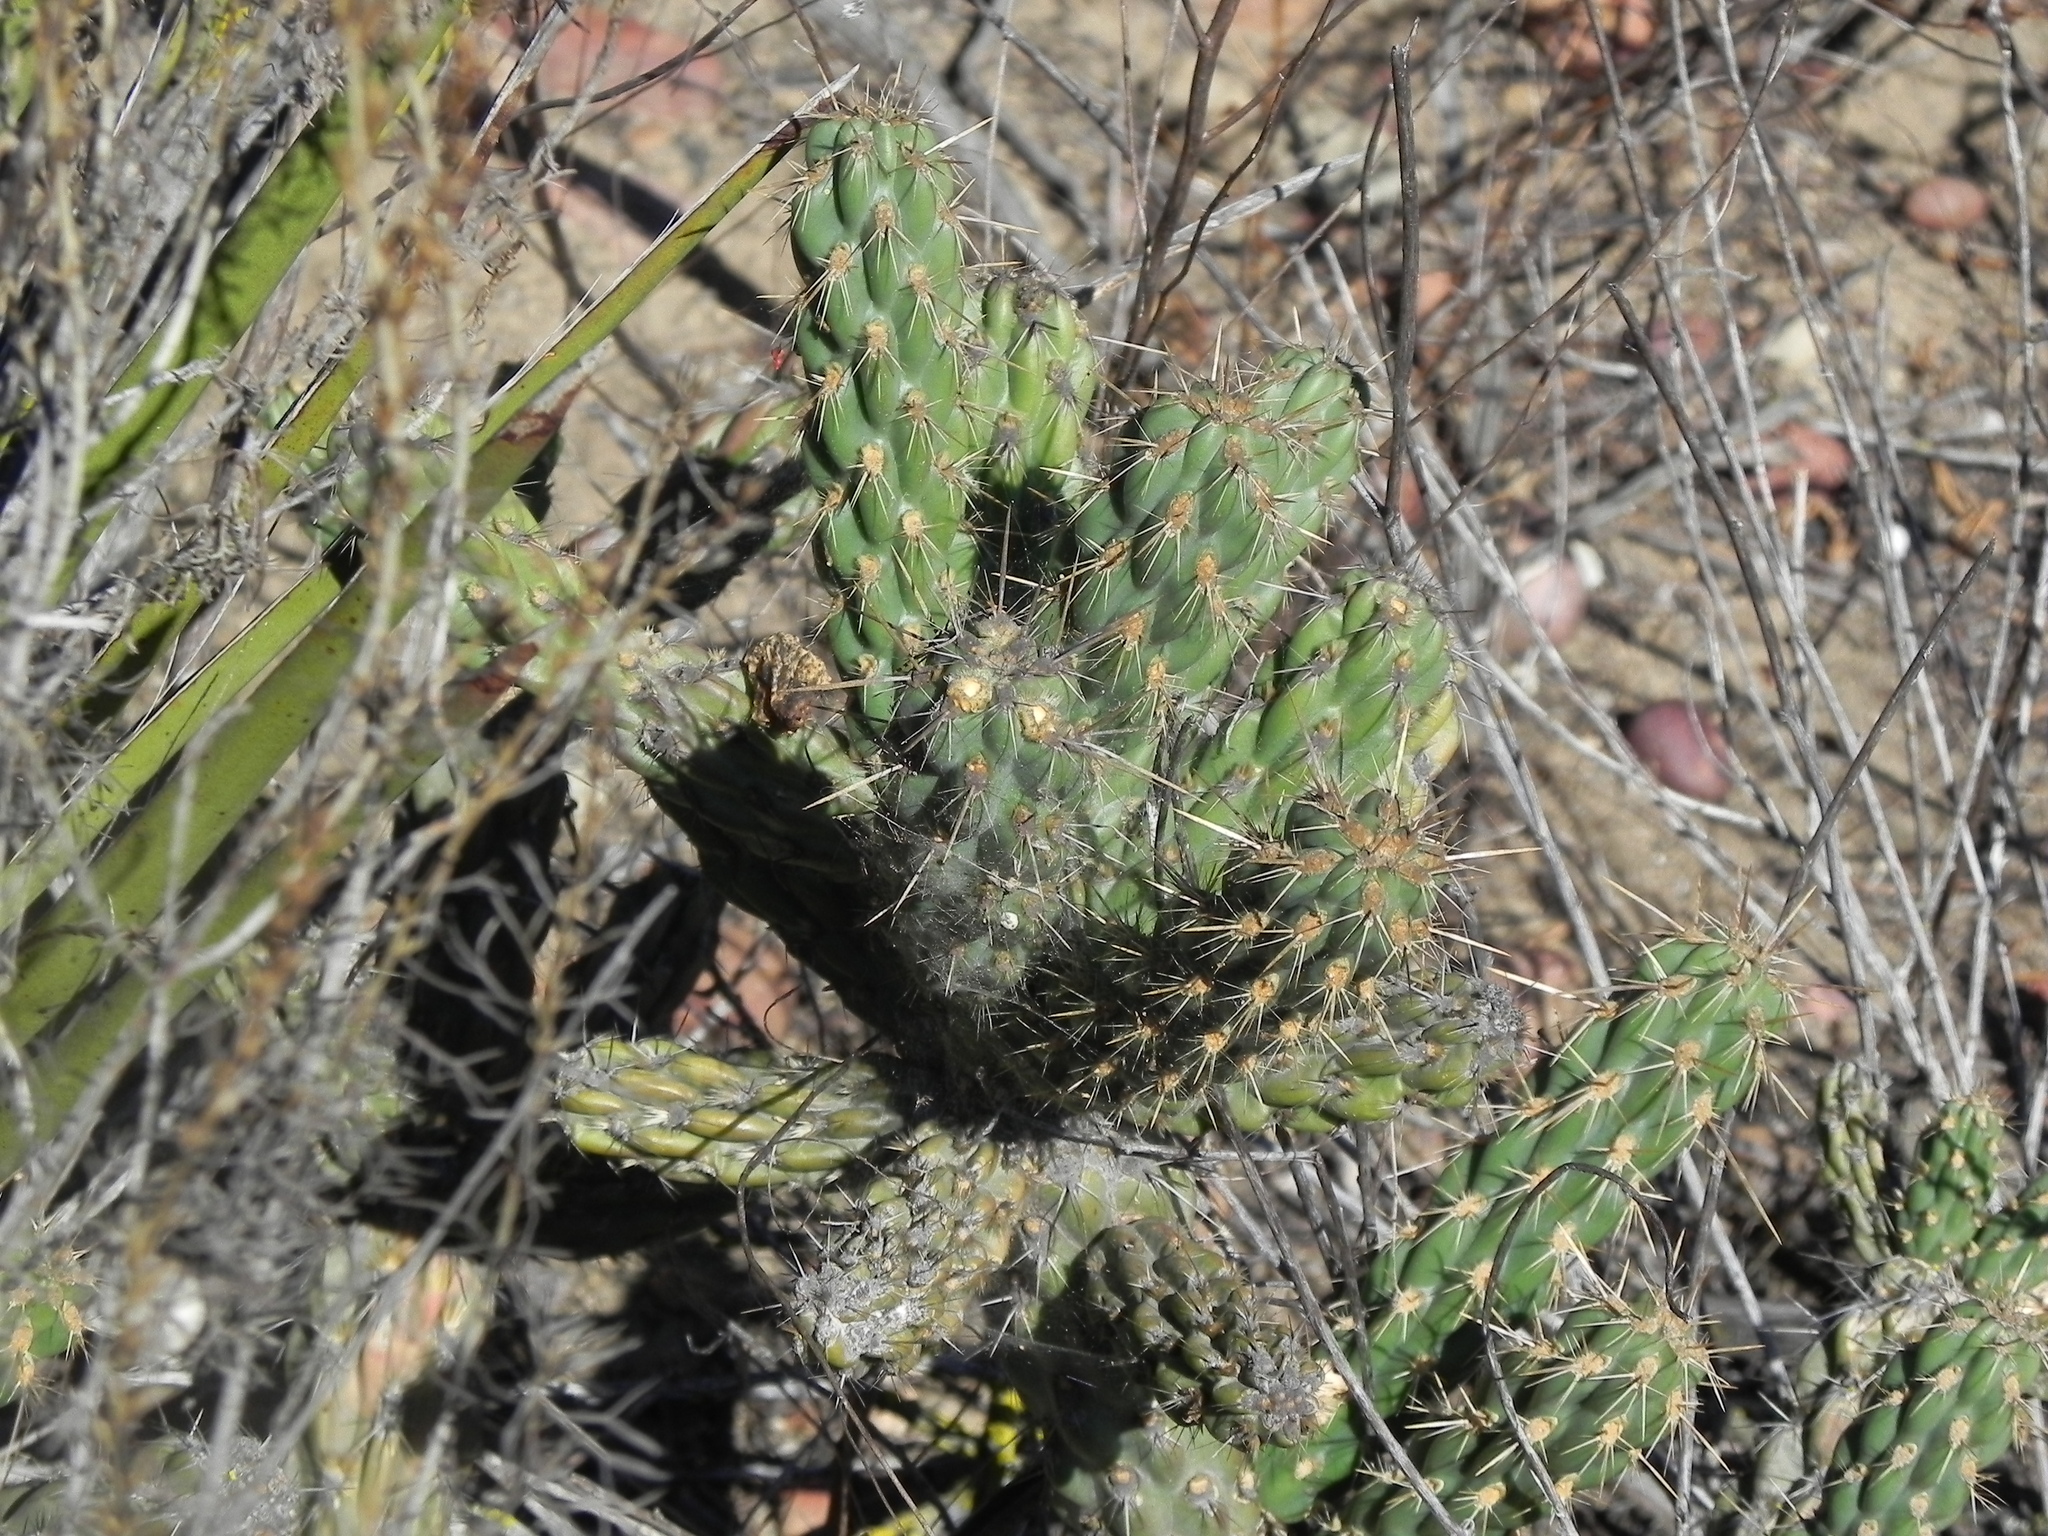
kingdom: Plantae
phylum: Tracheophyta
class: Magnoliopsida
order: Caryophyllales
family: Cactaceae
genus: Cylindropuntia
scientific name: Cylindropuntia californica
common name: Snake cholla
